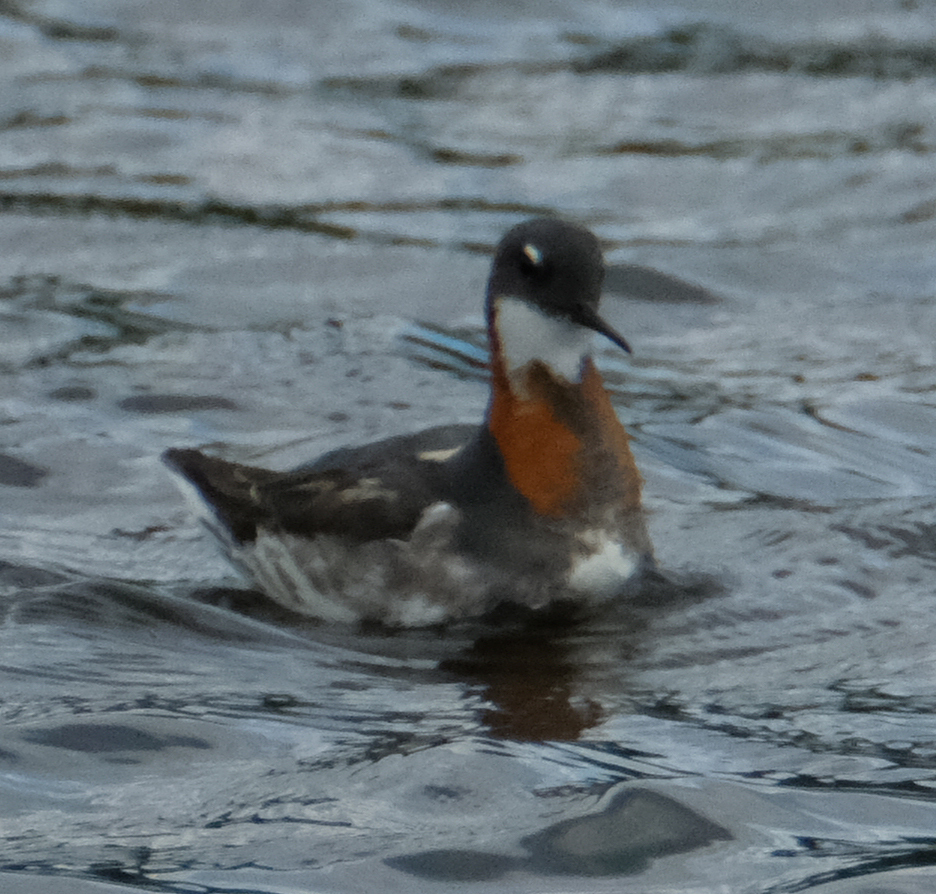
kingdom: Animalia
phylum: Chordata
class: Aves
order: Charadriiformes
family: Scolopacidae
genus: Phalaropus
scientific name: Phalaropus lobatus
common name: Red-necked phalarope
